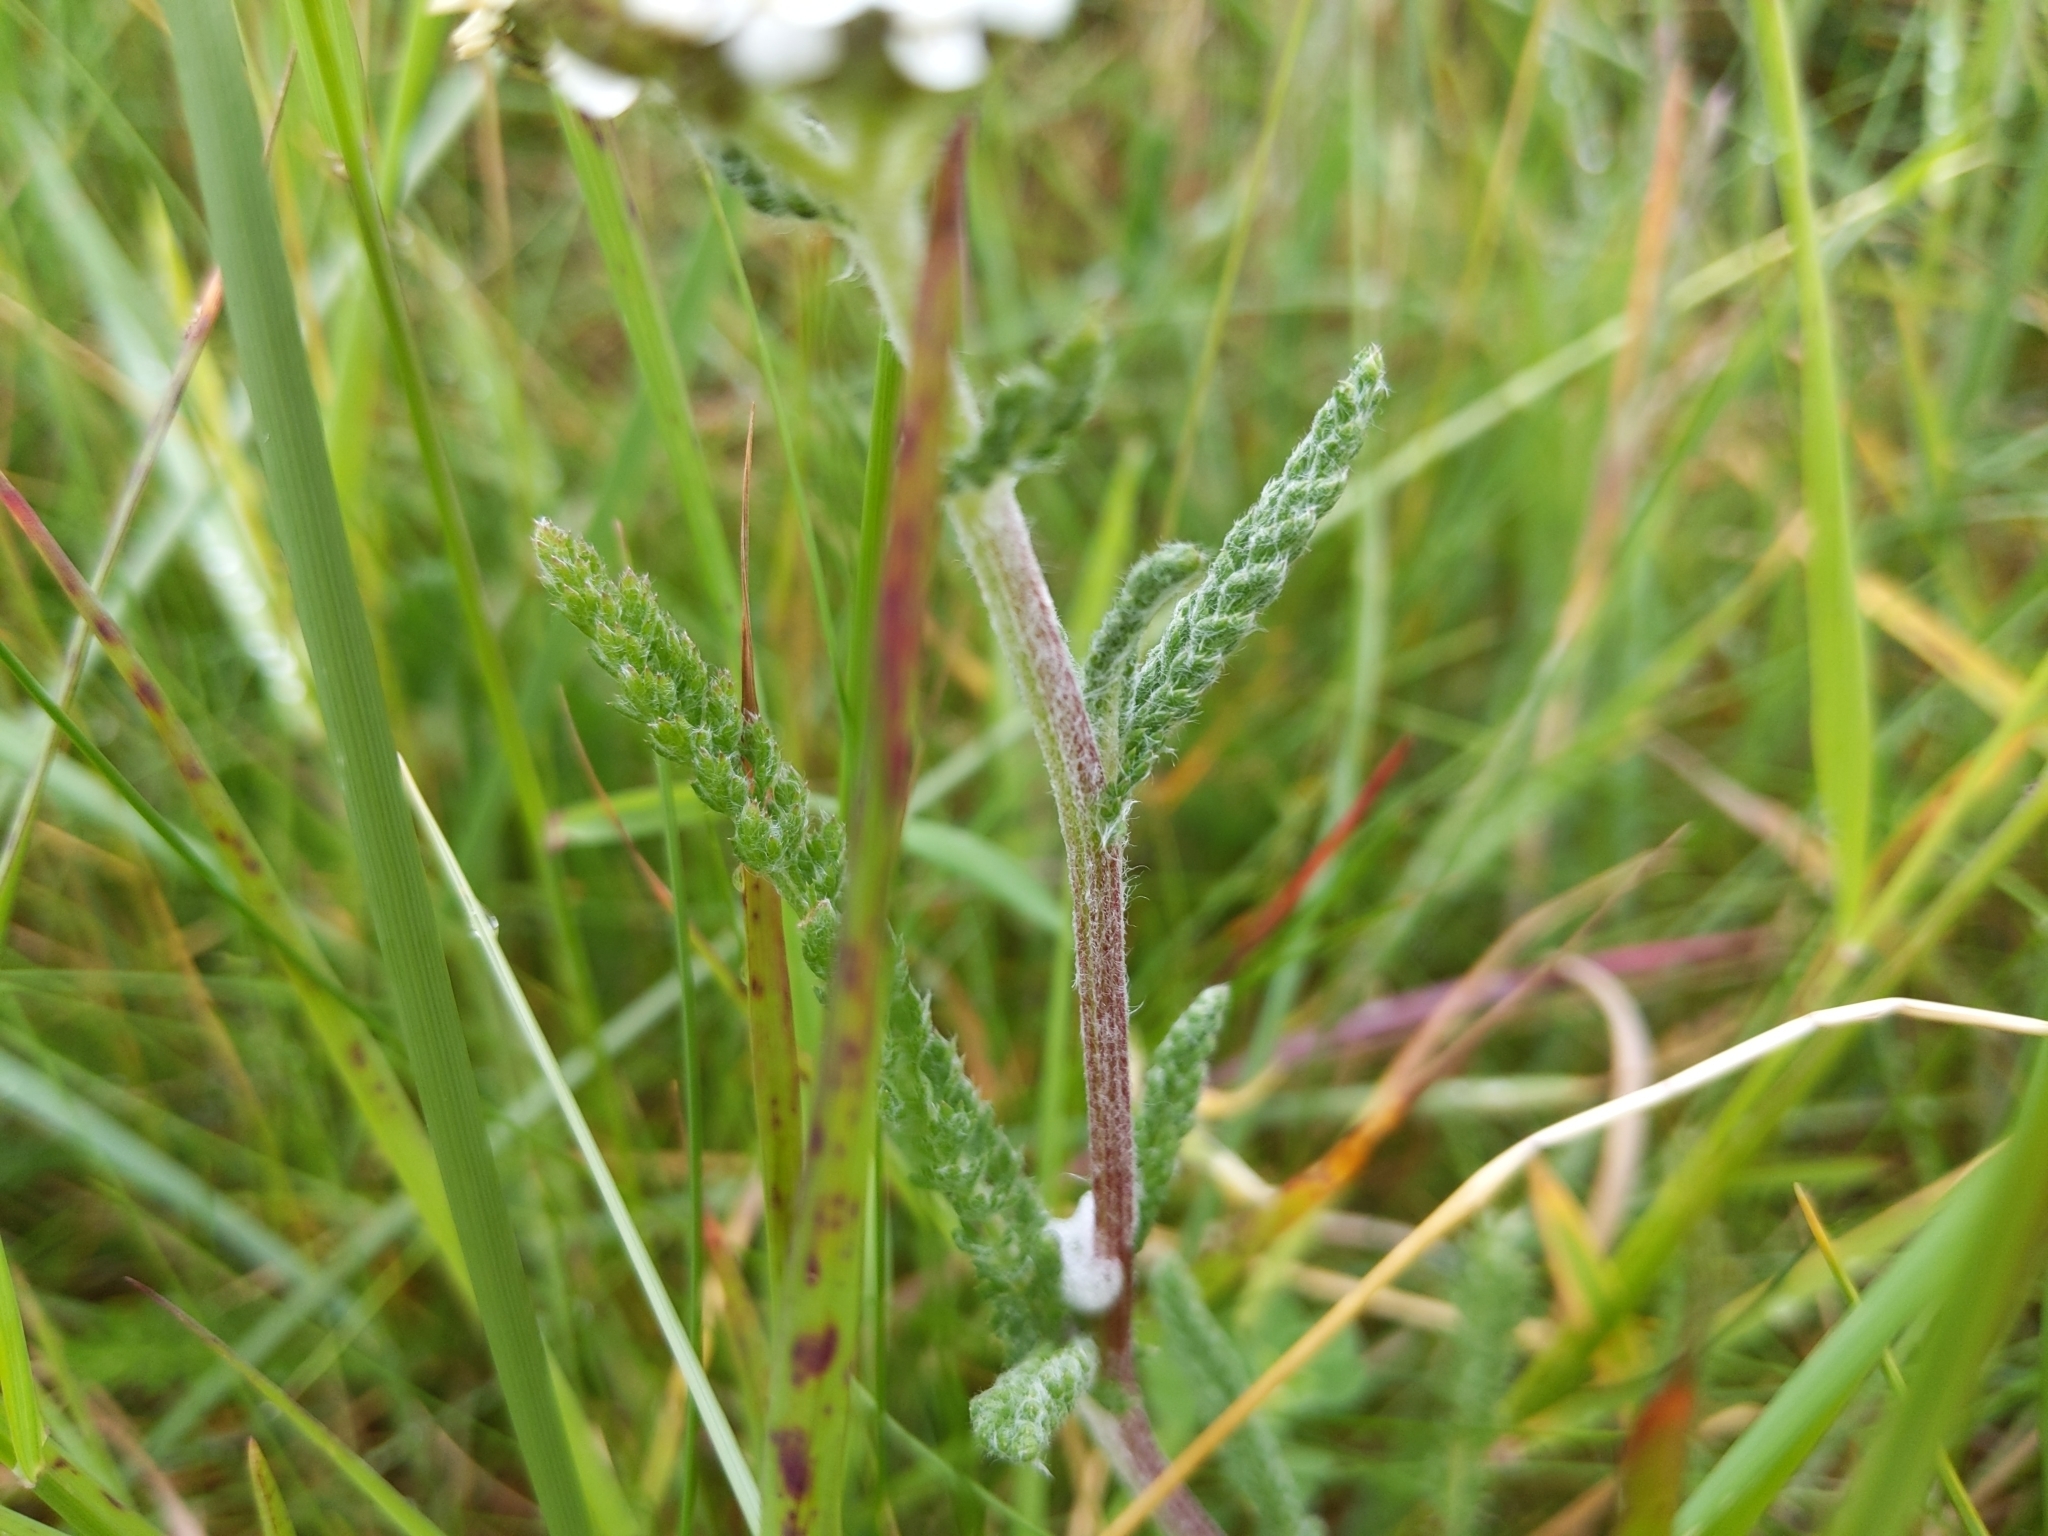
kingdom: Plantae
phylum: Tracheophyta
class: Magnoliopsida
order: Asterales
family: Asteraceae
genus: Achillea
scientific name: Achillea millefolium
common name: Yarrow
